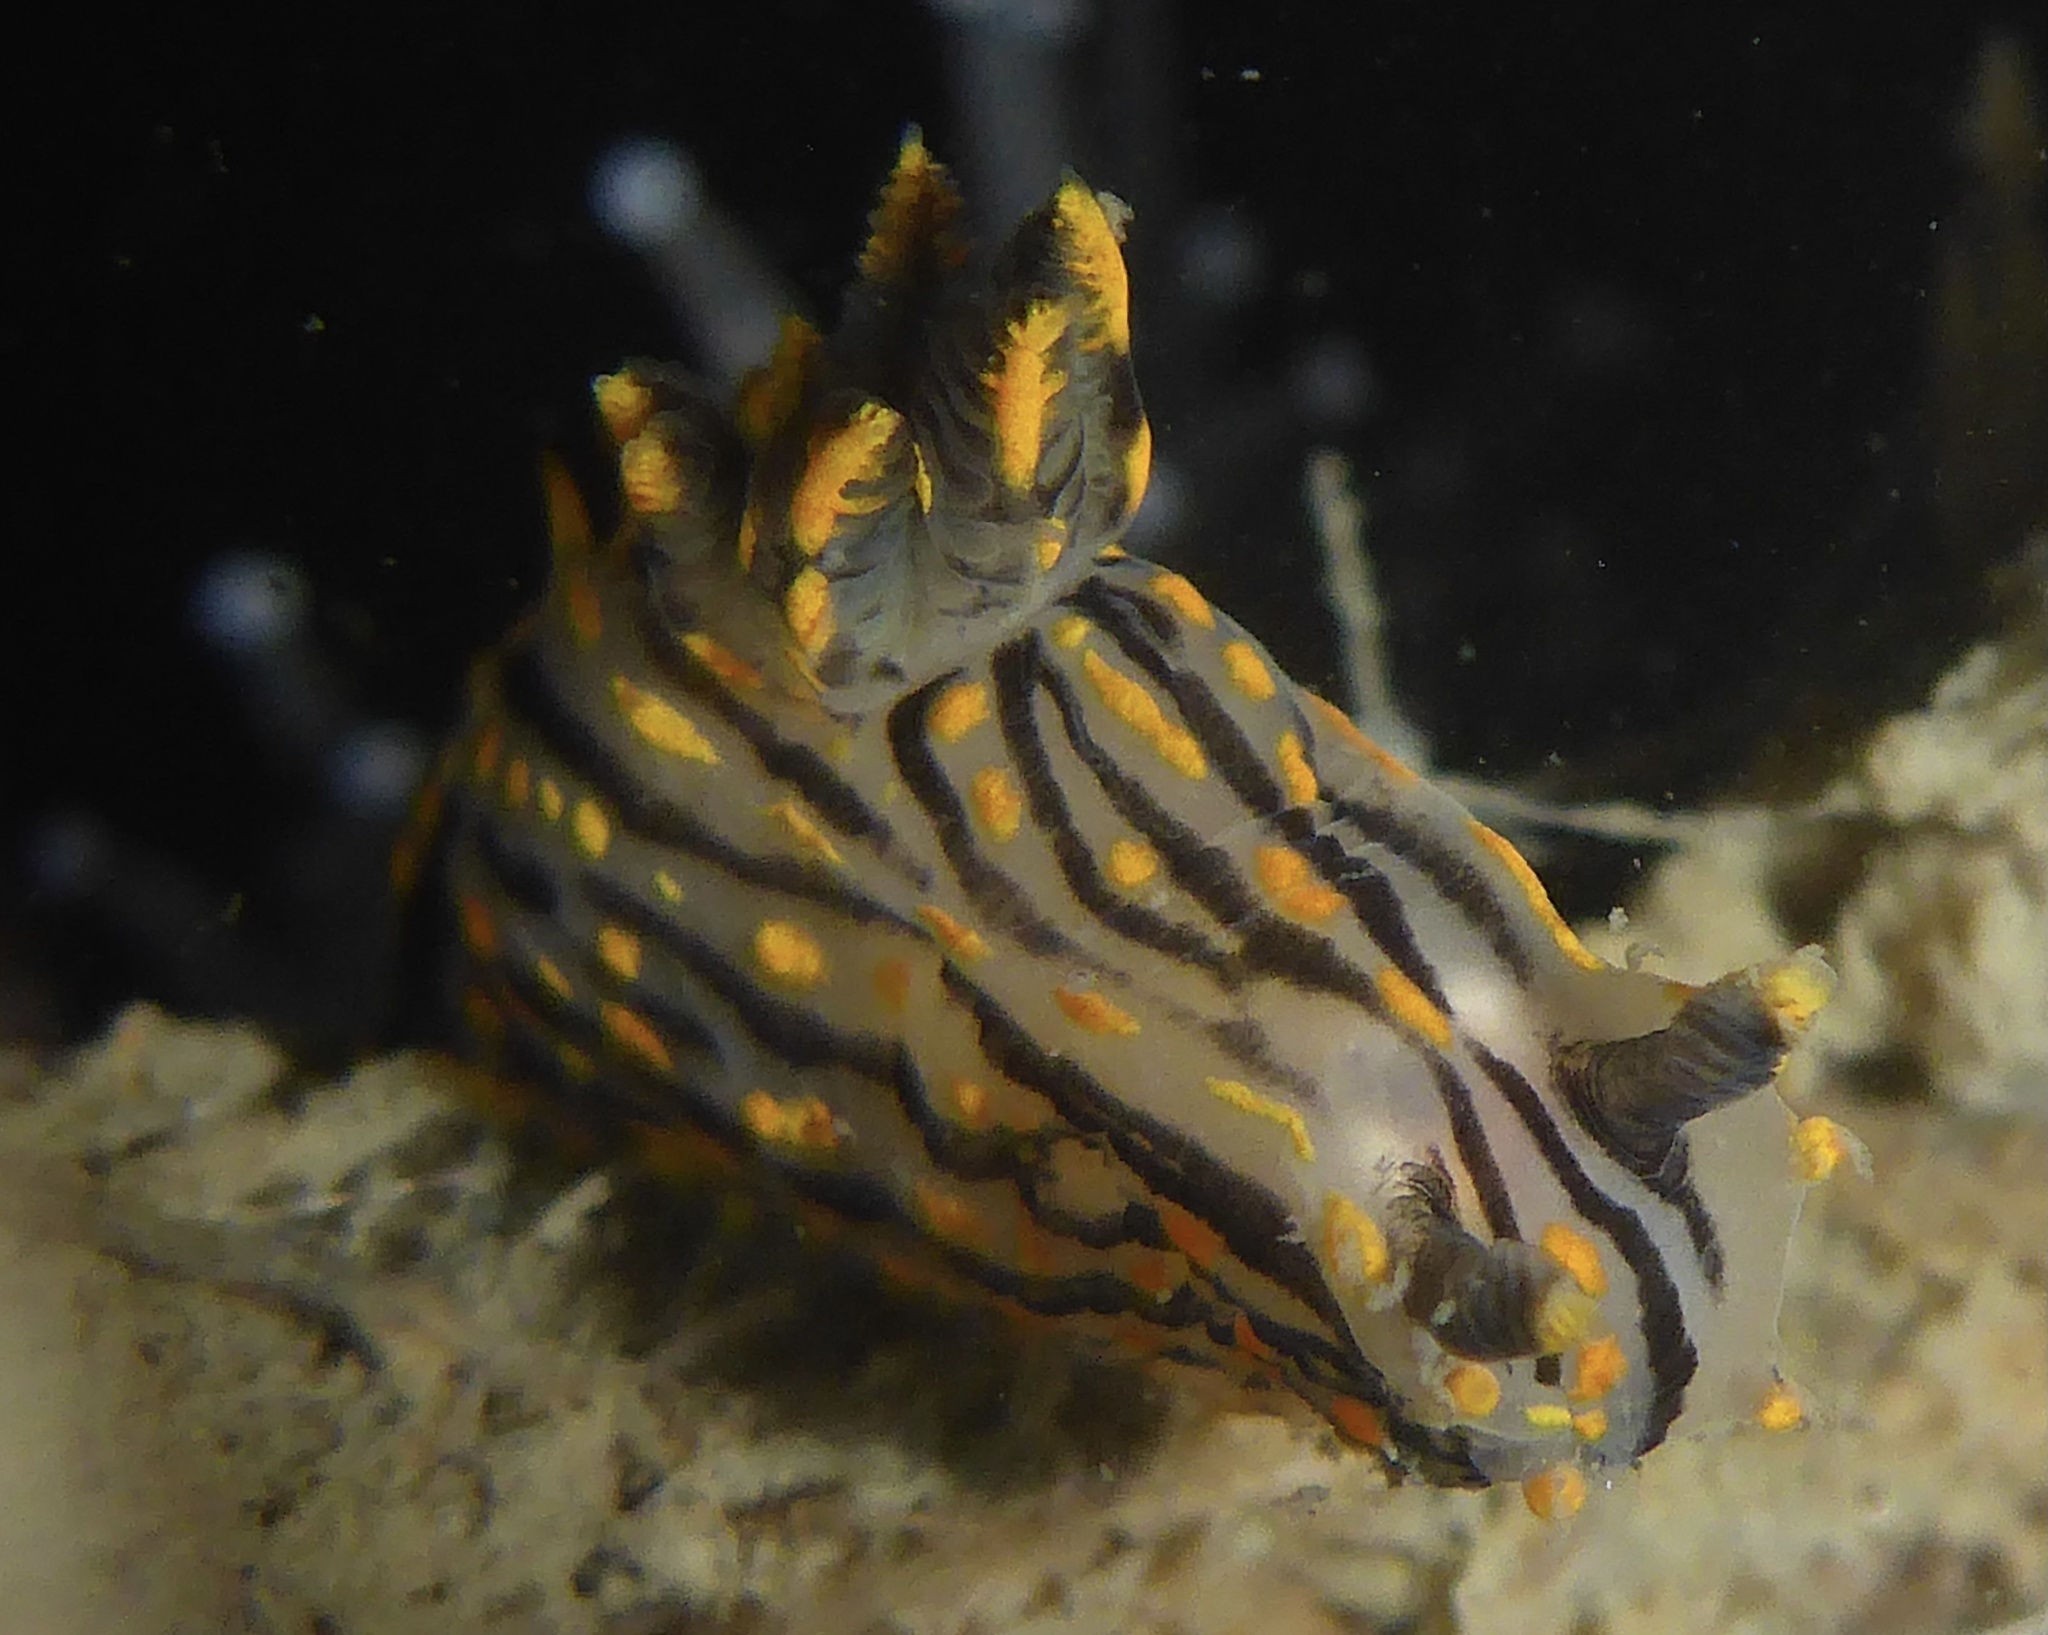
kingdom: Animalia
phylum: Mollusca
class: Gastropoda
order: Nudibranchia
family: Polyceridae
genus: Polycera
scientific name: Polycera atra
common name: Orange-spike polycera
